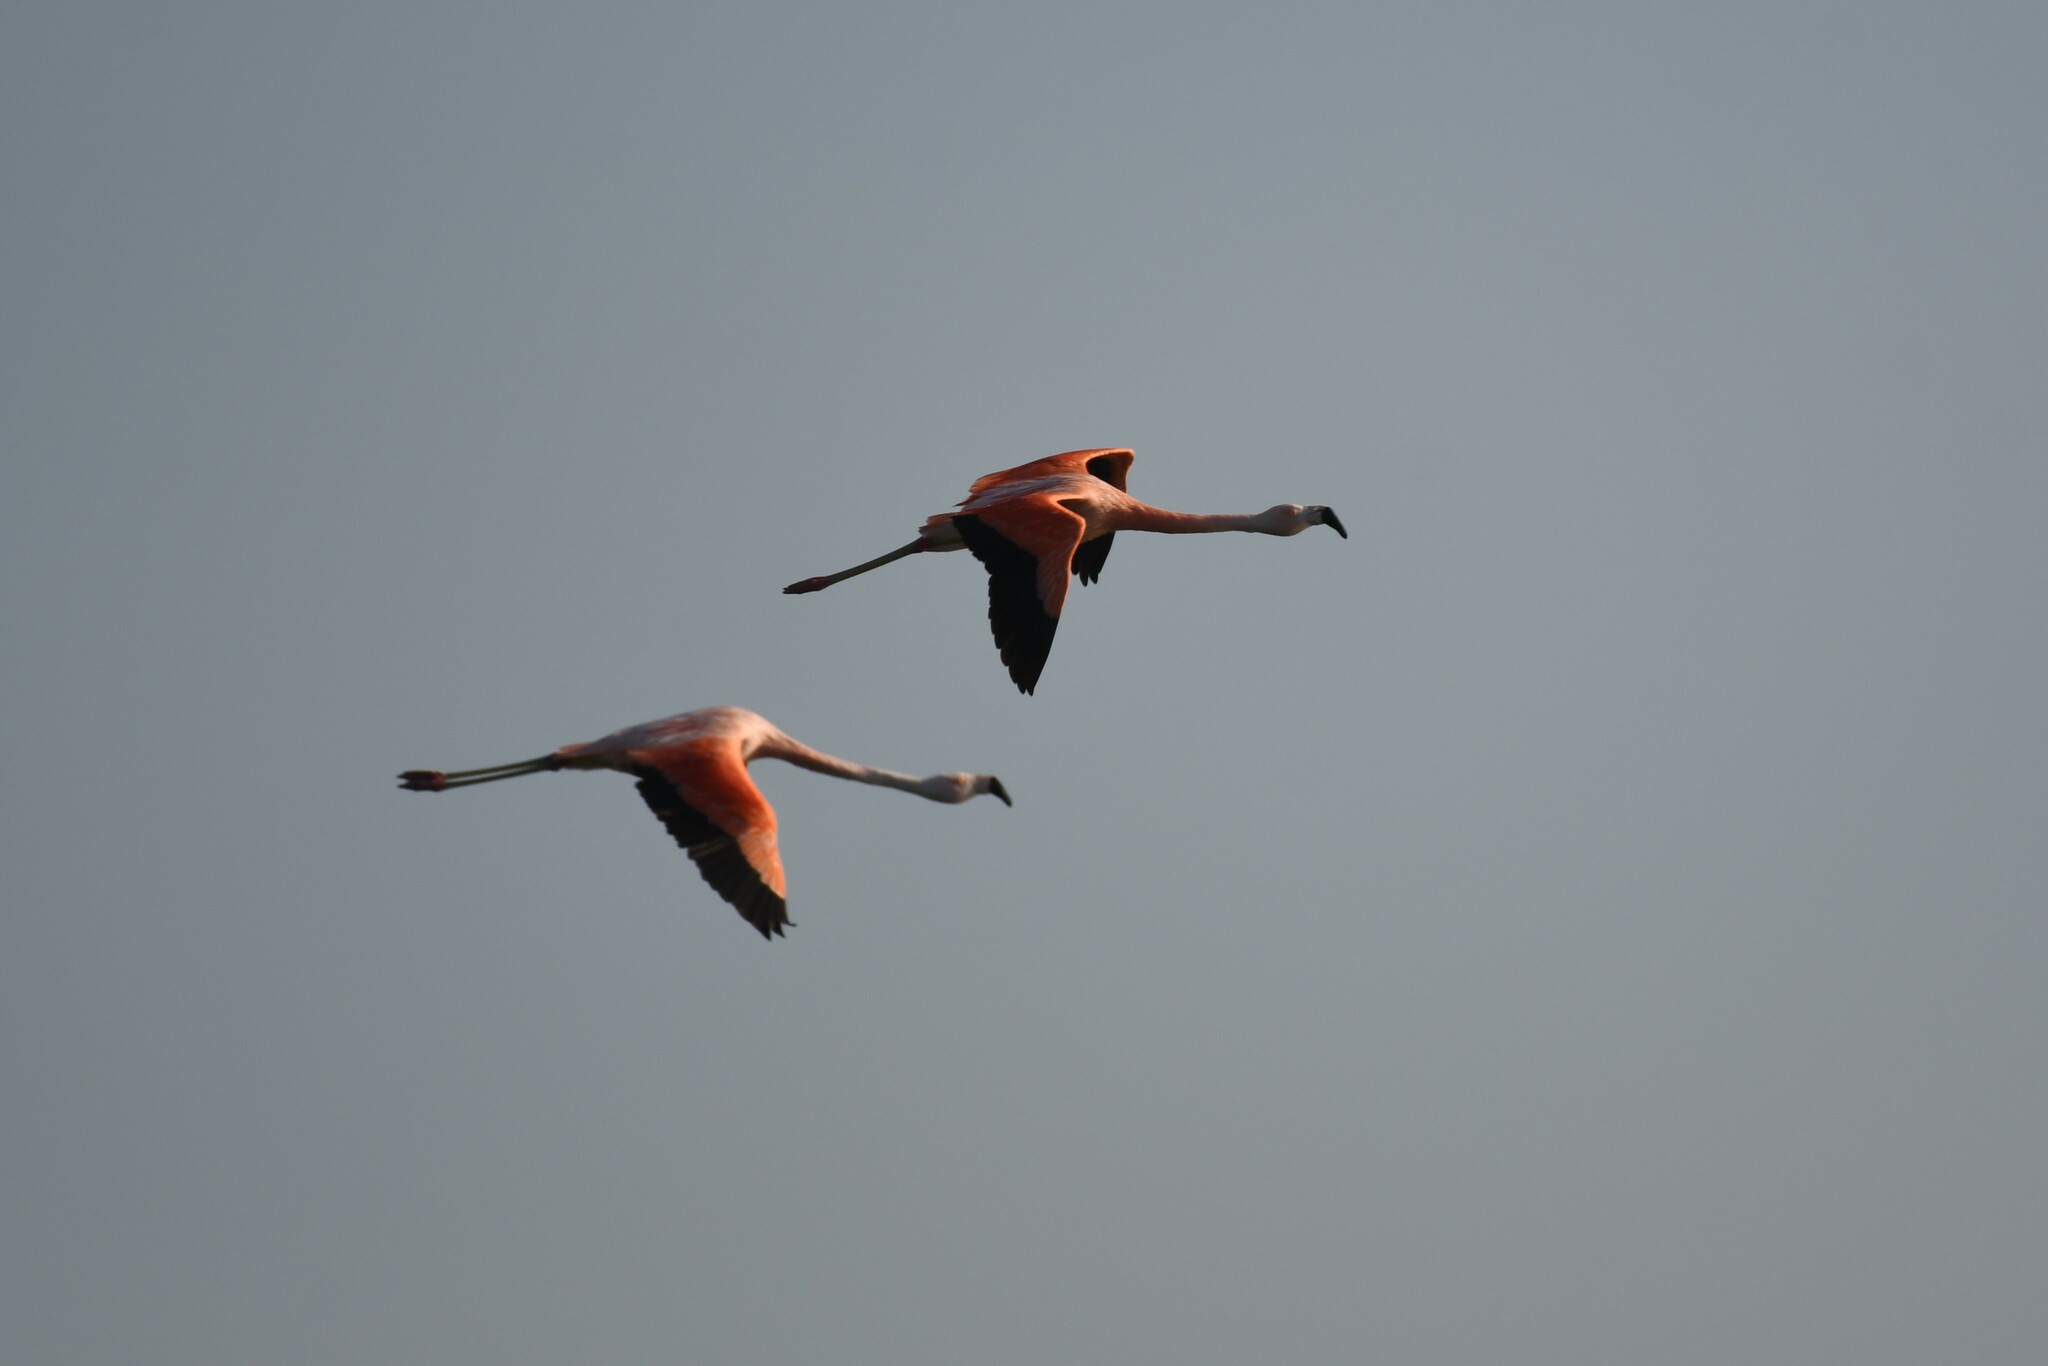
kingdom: Animalia
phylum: Chordata
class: Aves
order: Phoenicopteriformes
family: Phoenicopteridae
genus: Phoenicopterus
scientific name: Phoenicopterus chilensis
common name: Chilean flamingo
